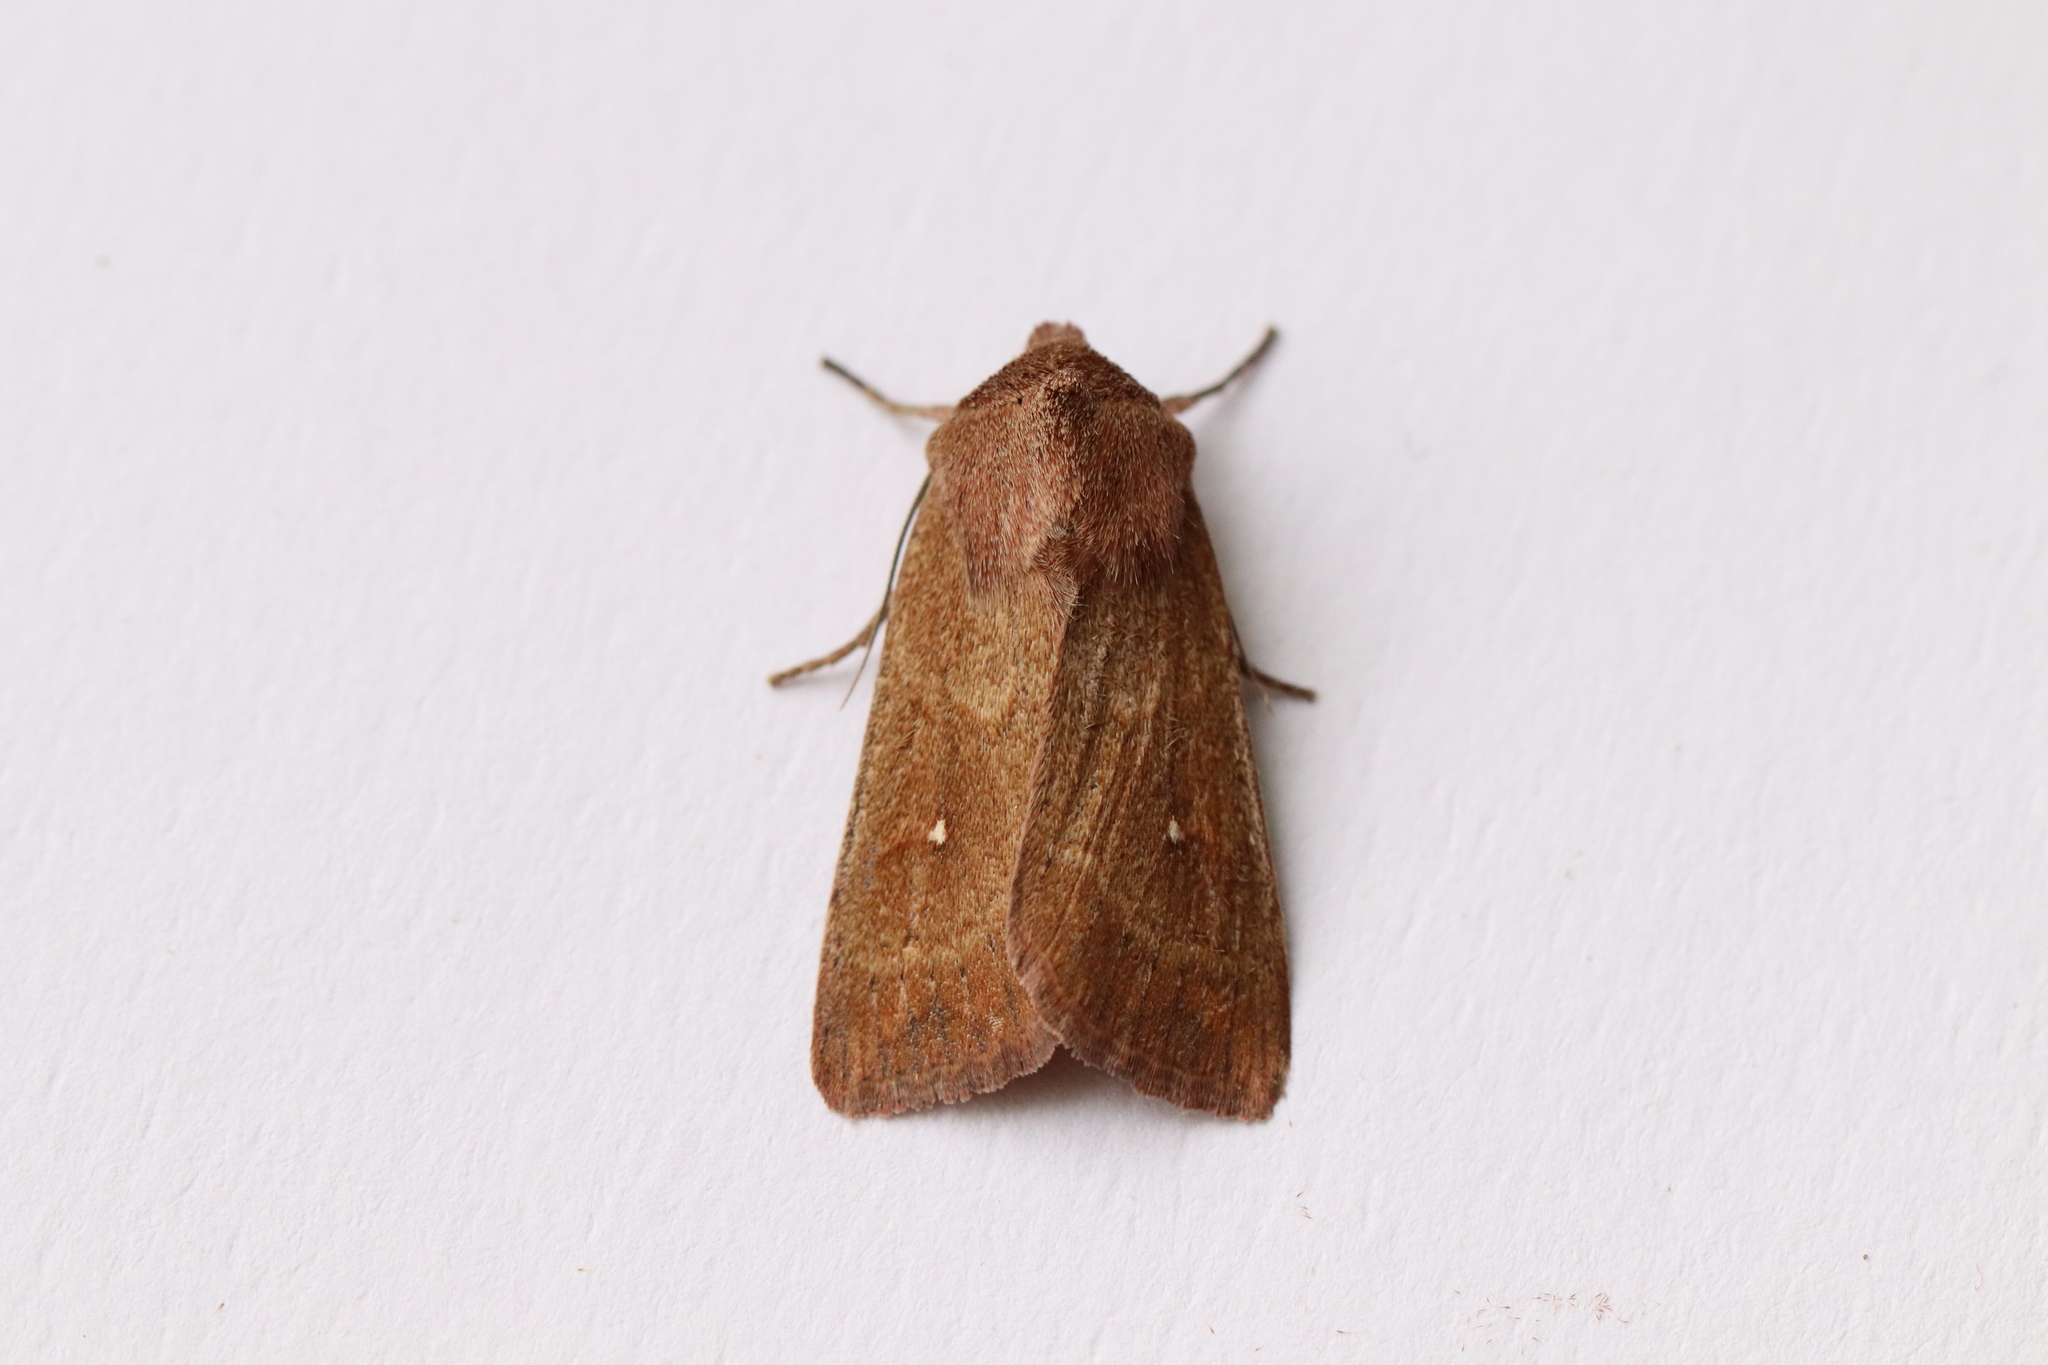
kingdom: Animalia
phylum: Arthropoda
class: Insecta
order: Lepidoptera
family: Noctuidae
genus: Mythimna
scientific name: Mythimna albipuncta
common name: White-point
